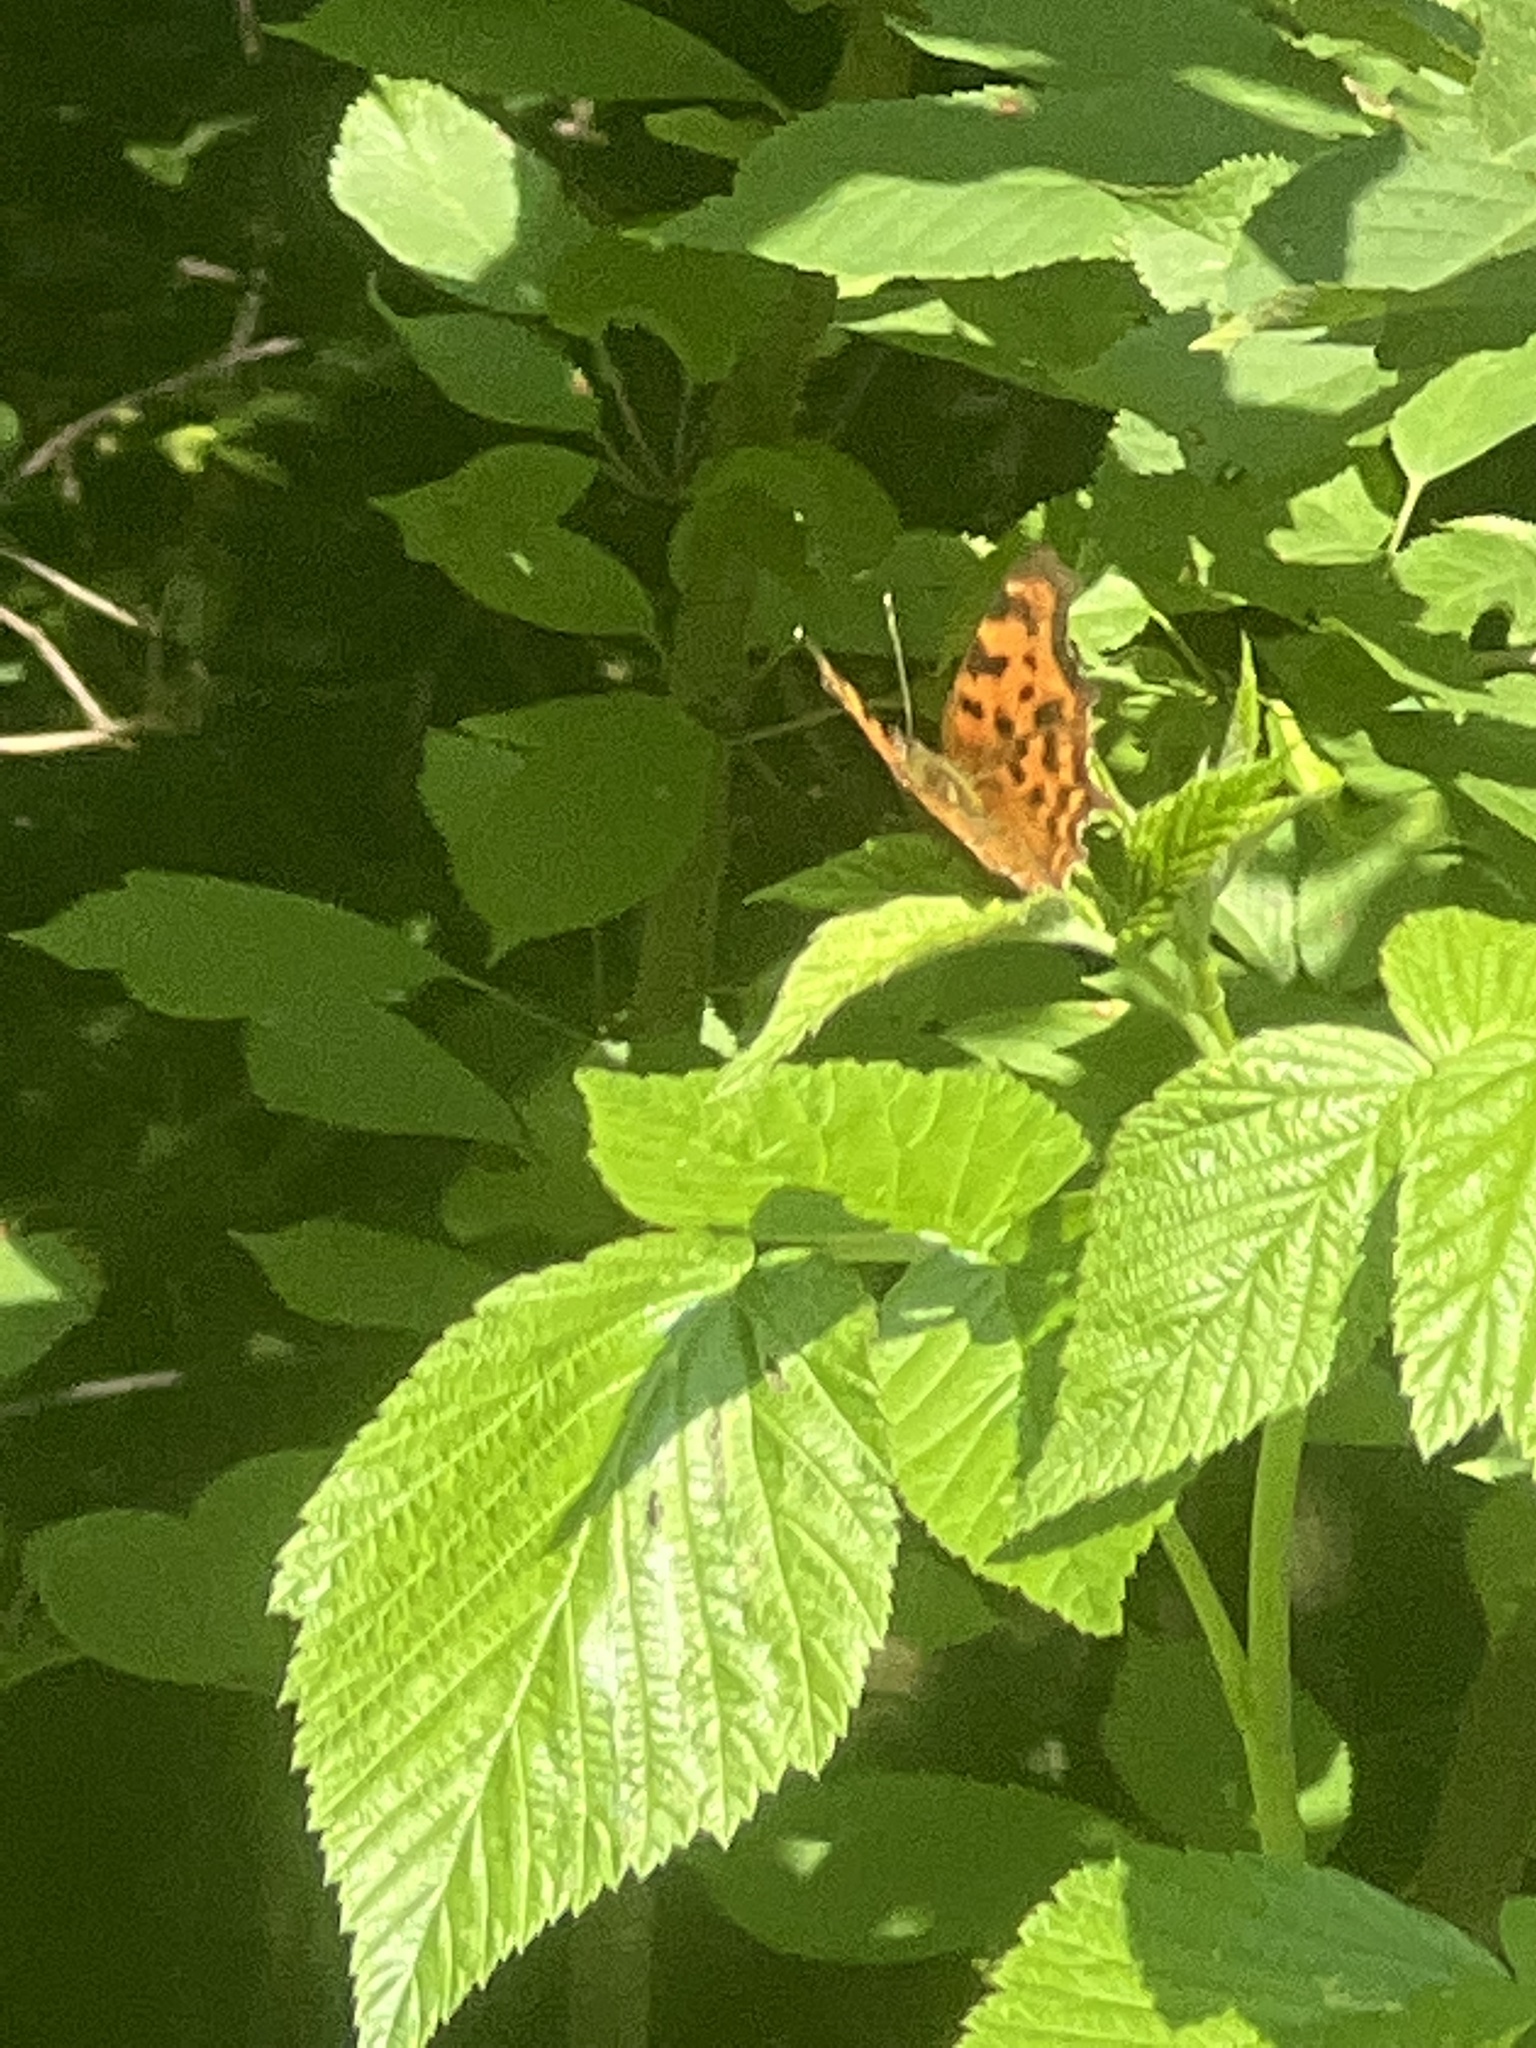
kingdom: Animalia
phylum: Arthropoda
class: Insecta
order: Lepidoptera
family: Nymphalidae
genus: Polygonia
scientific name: Polygonia c-album
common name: Comma
